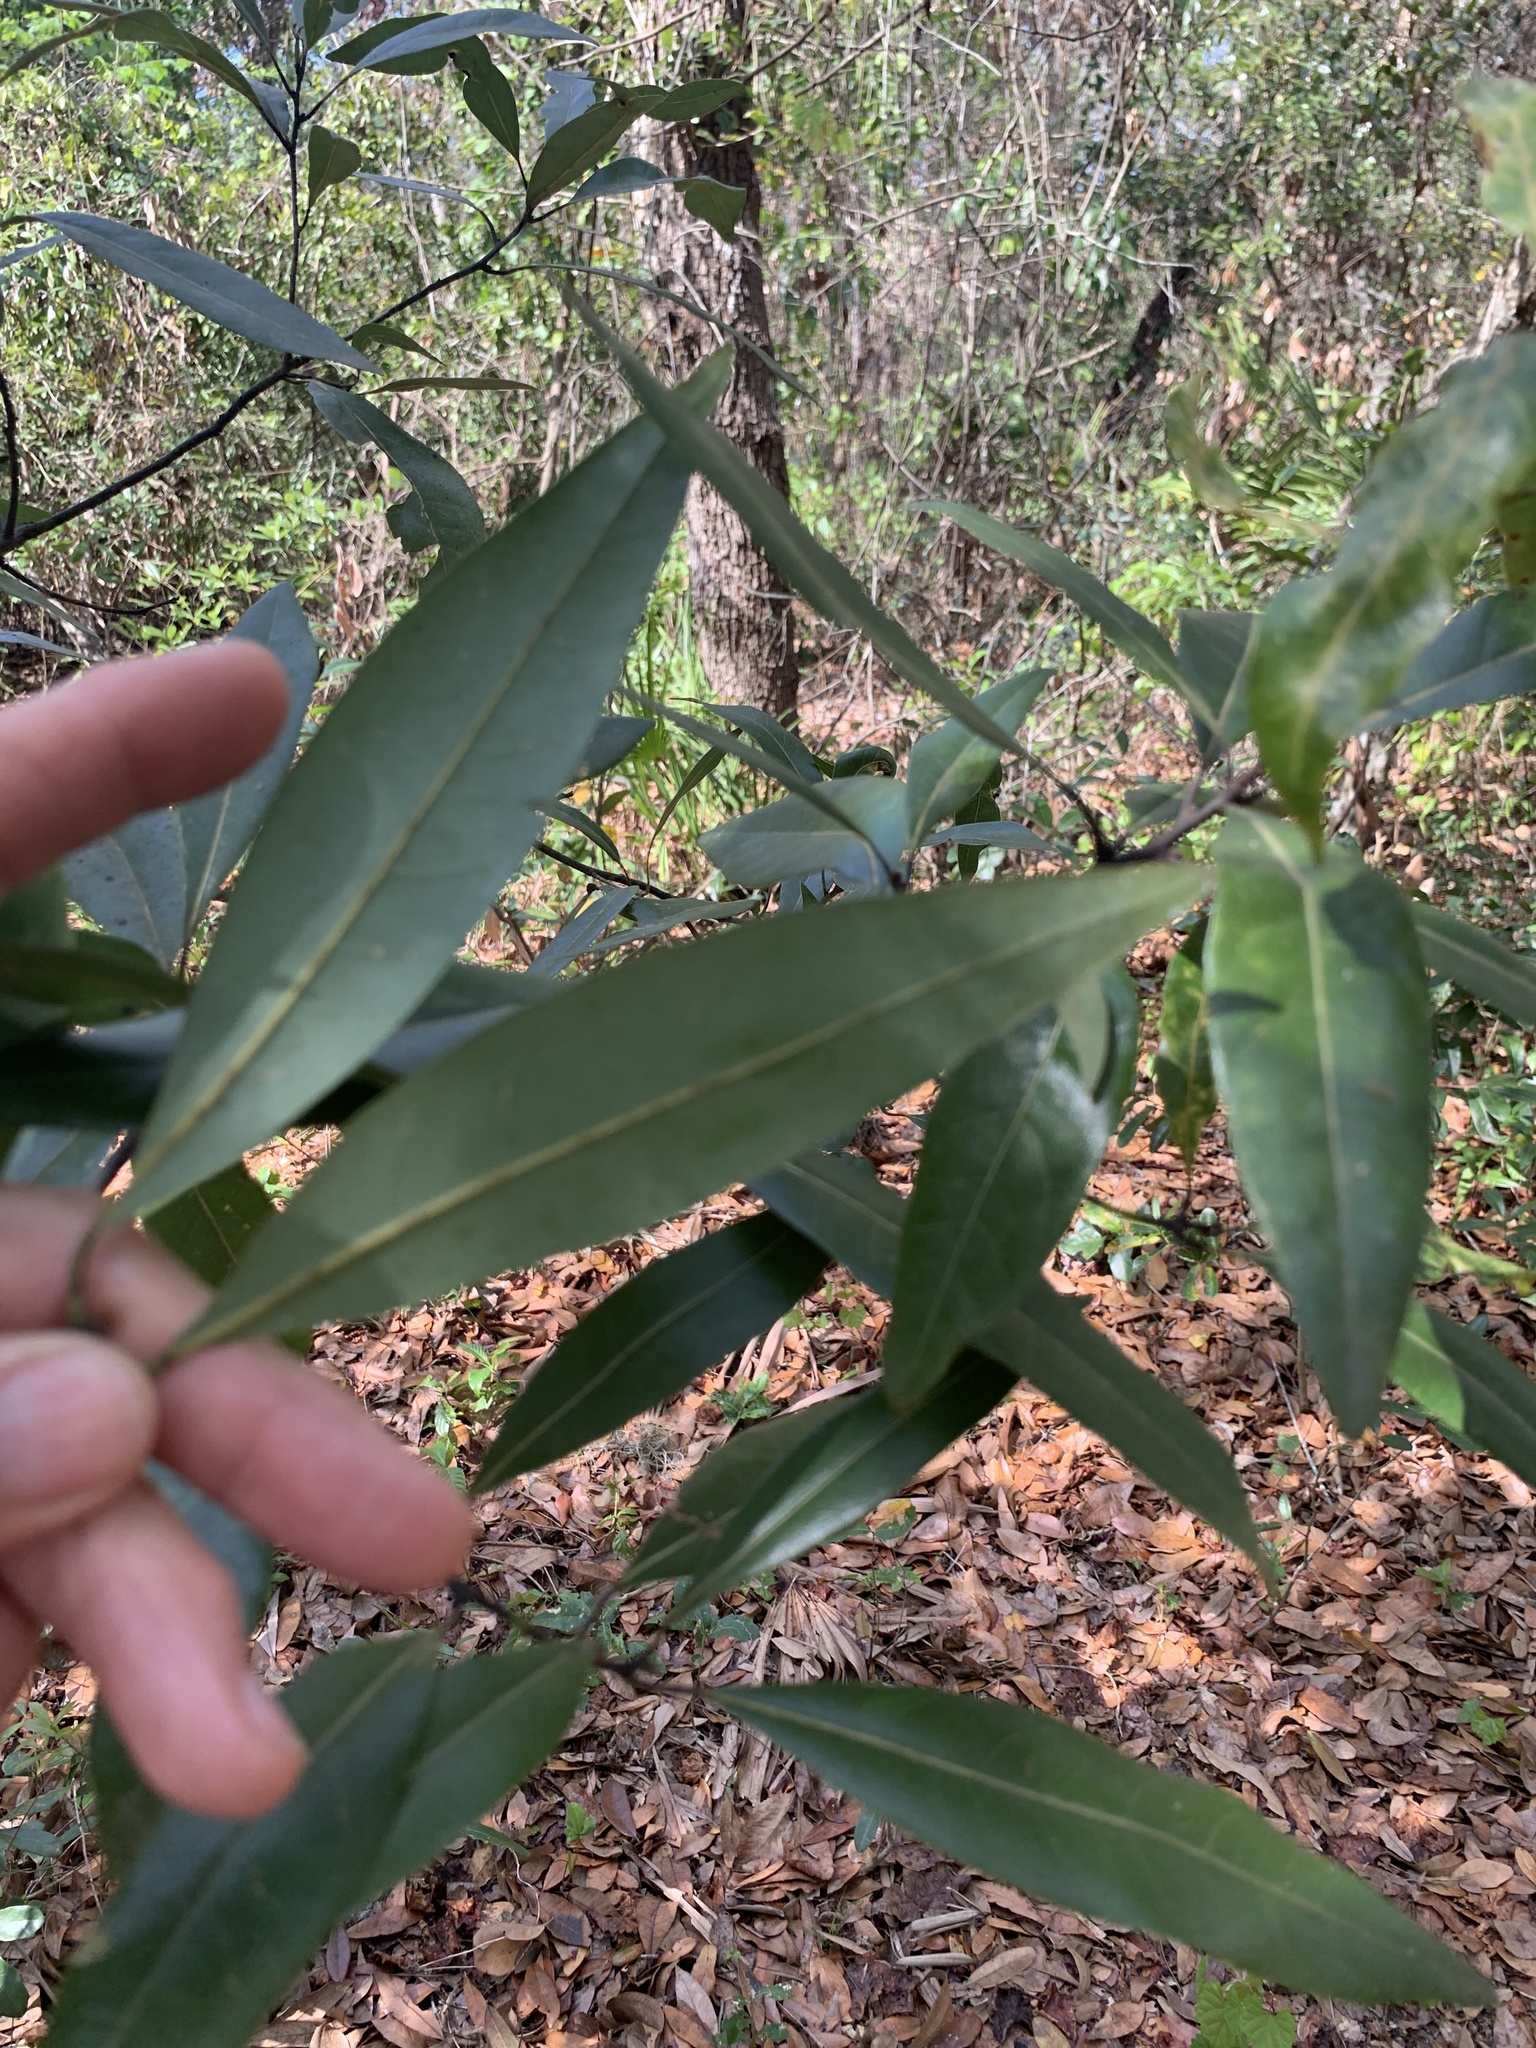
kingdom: Plantae
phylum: Tracheophyta
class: Magnoliopsida
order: Laurales
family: Lauraceae
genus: Persea
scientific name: Persea borbonia
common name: Redbay
